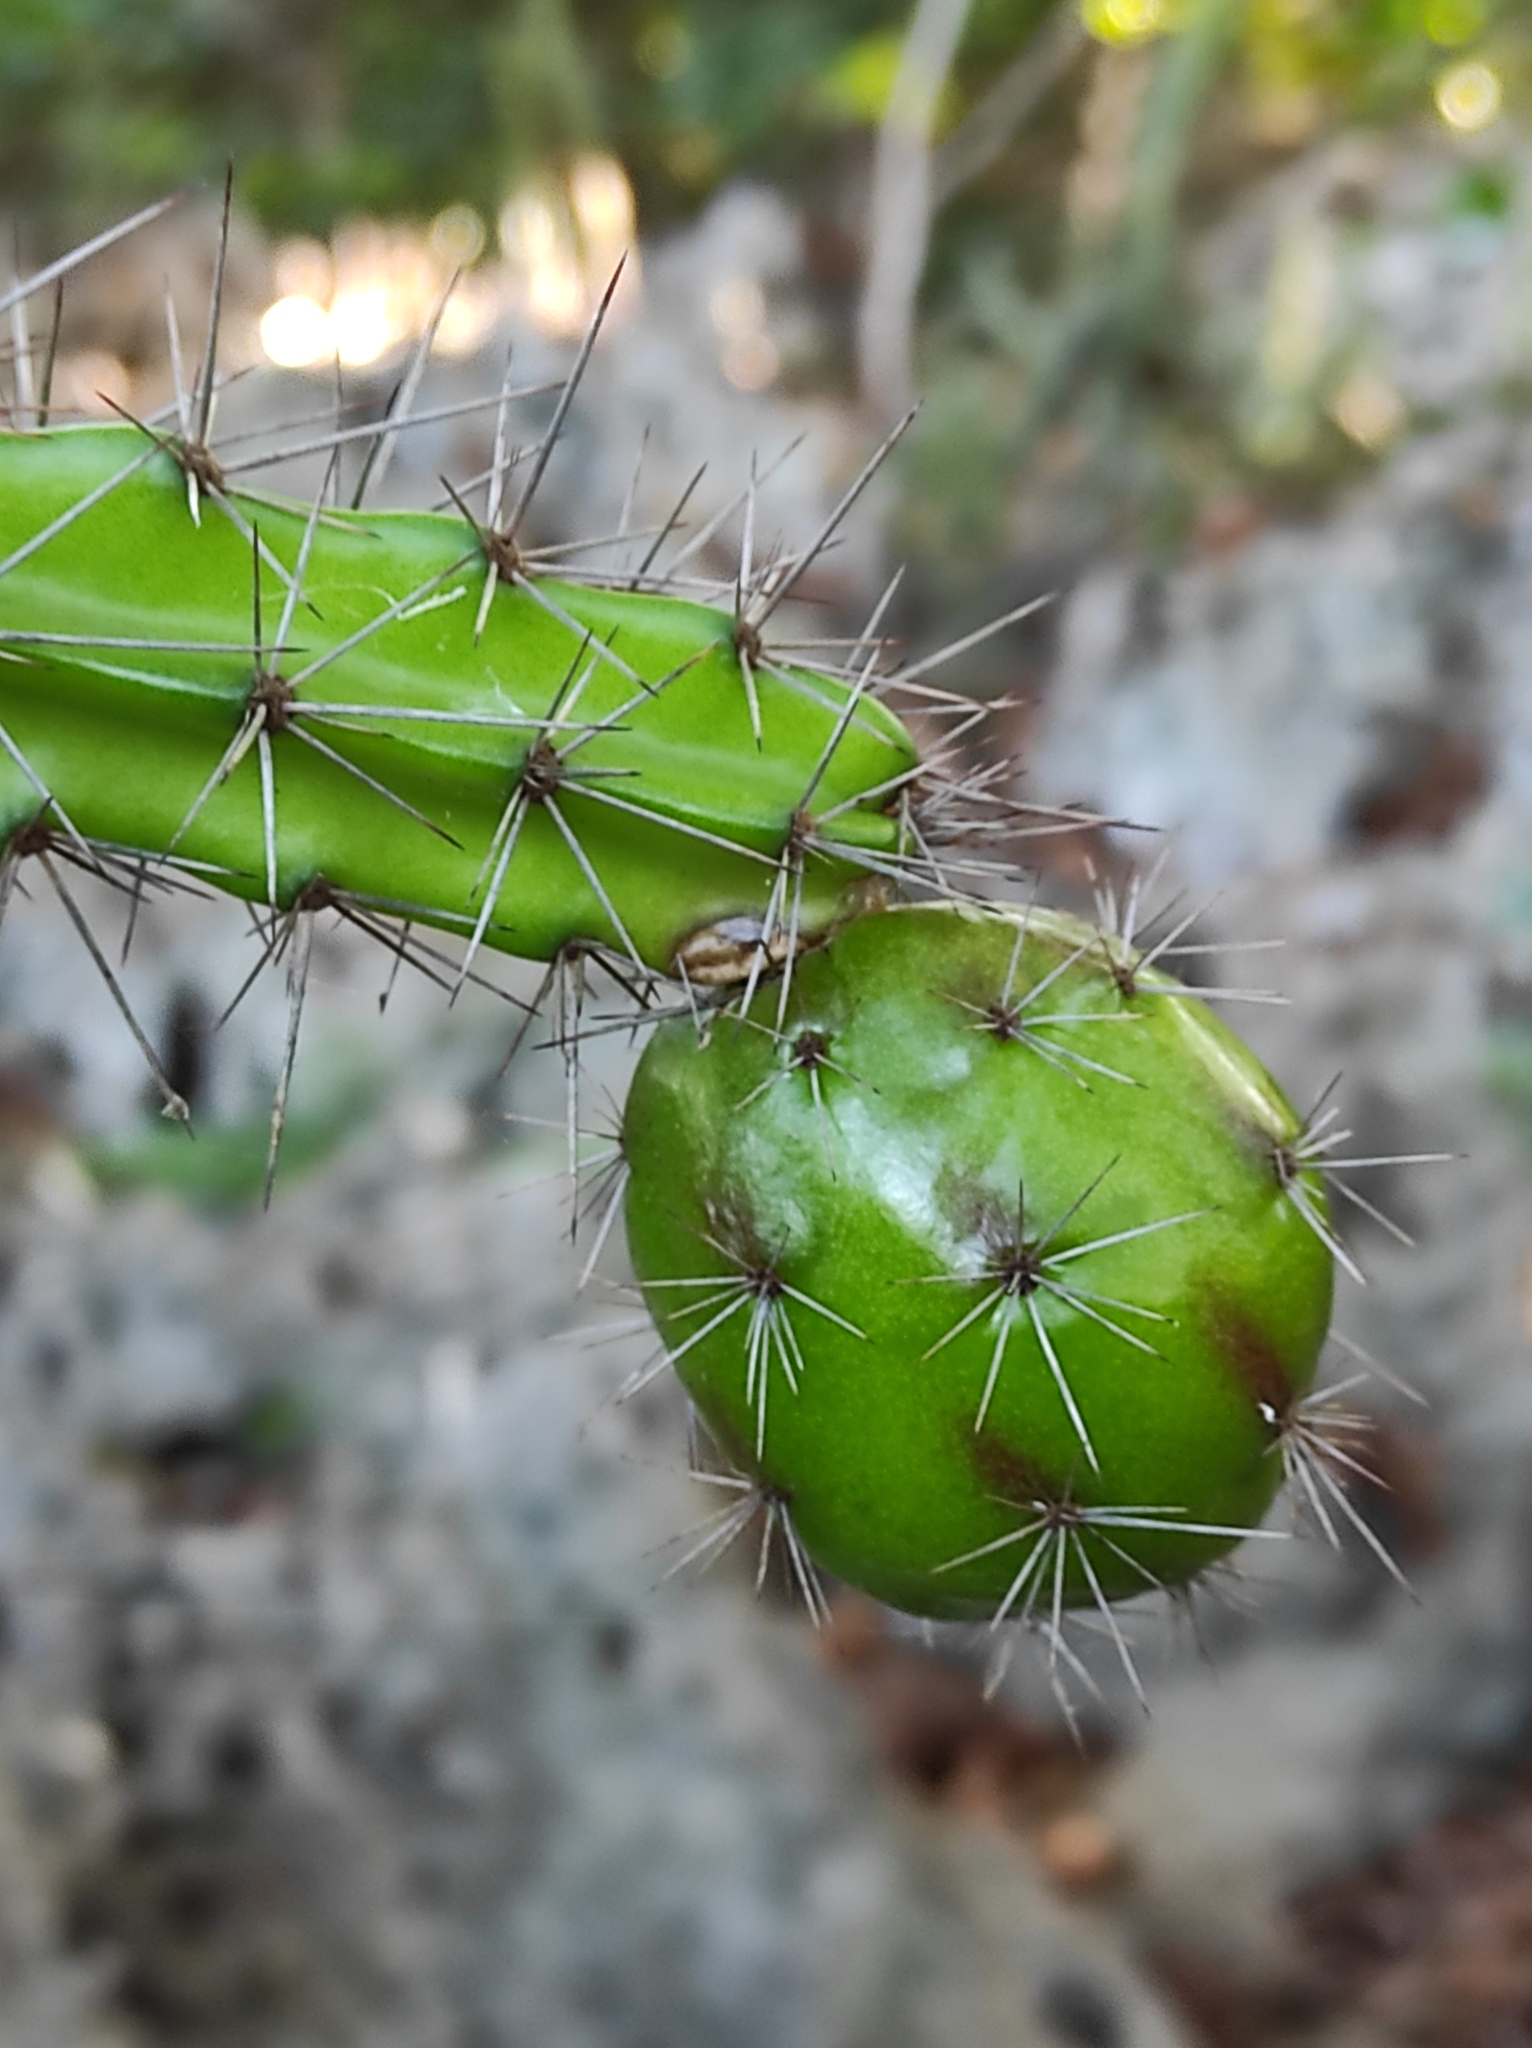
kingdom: Plantae
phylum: Tracheophyta
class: Magnoliopsida
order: Caryophyllales
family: Cactaceae
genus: Leptocereus
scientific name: Leptocereus weingartianus
